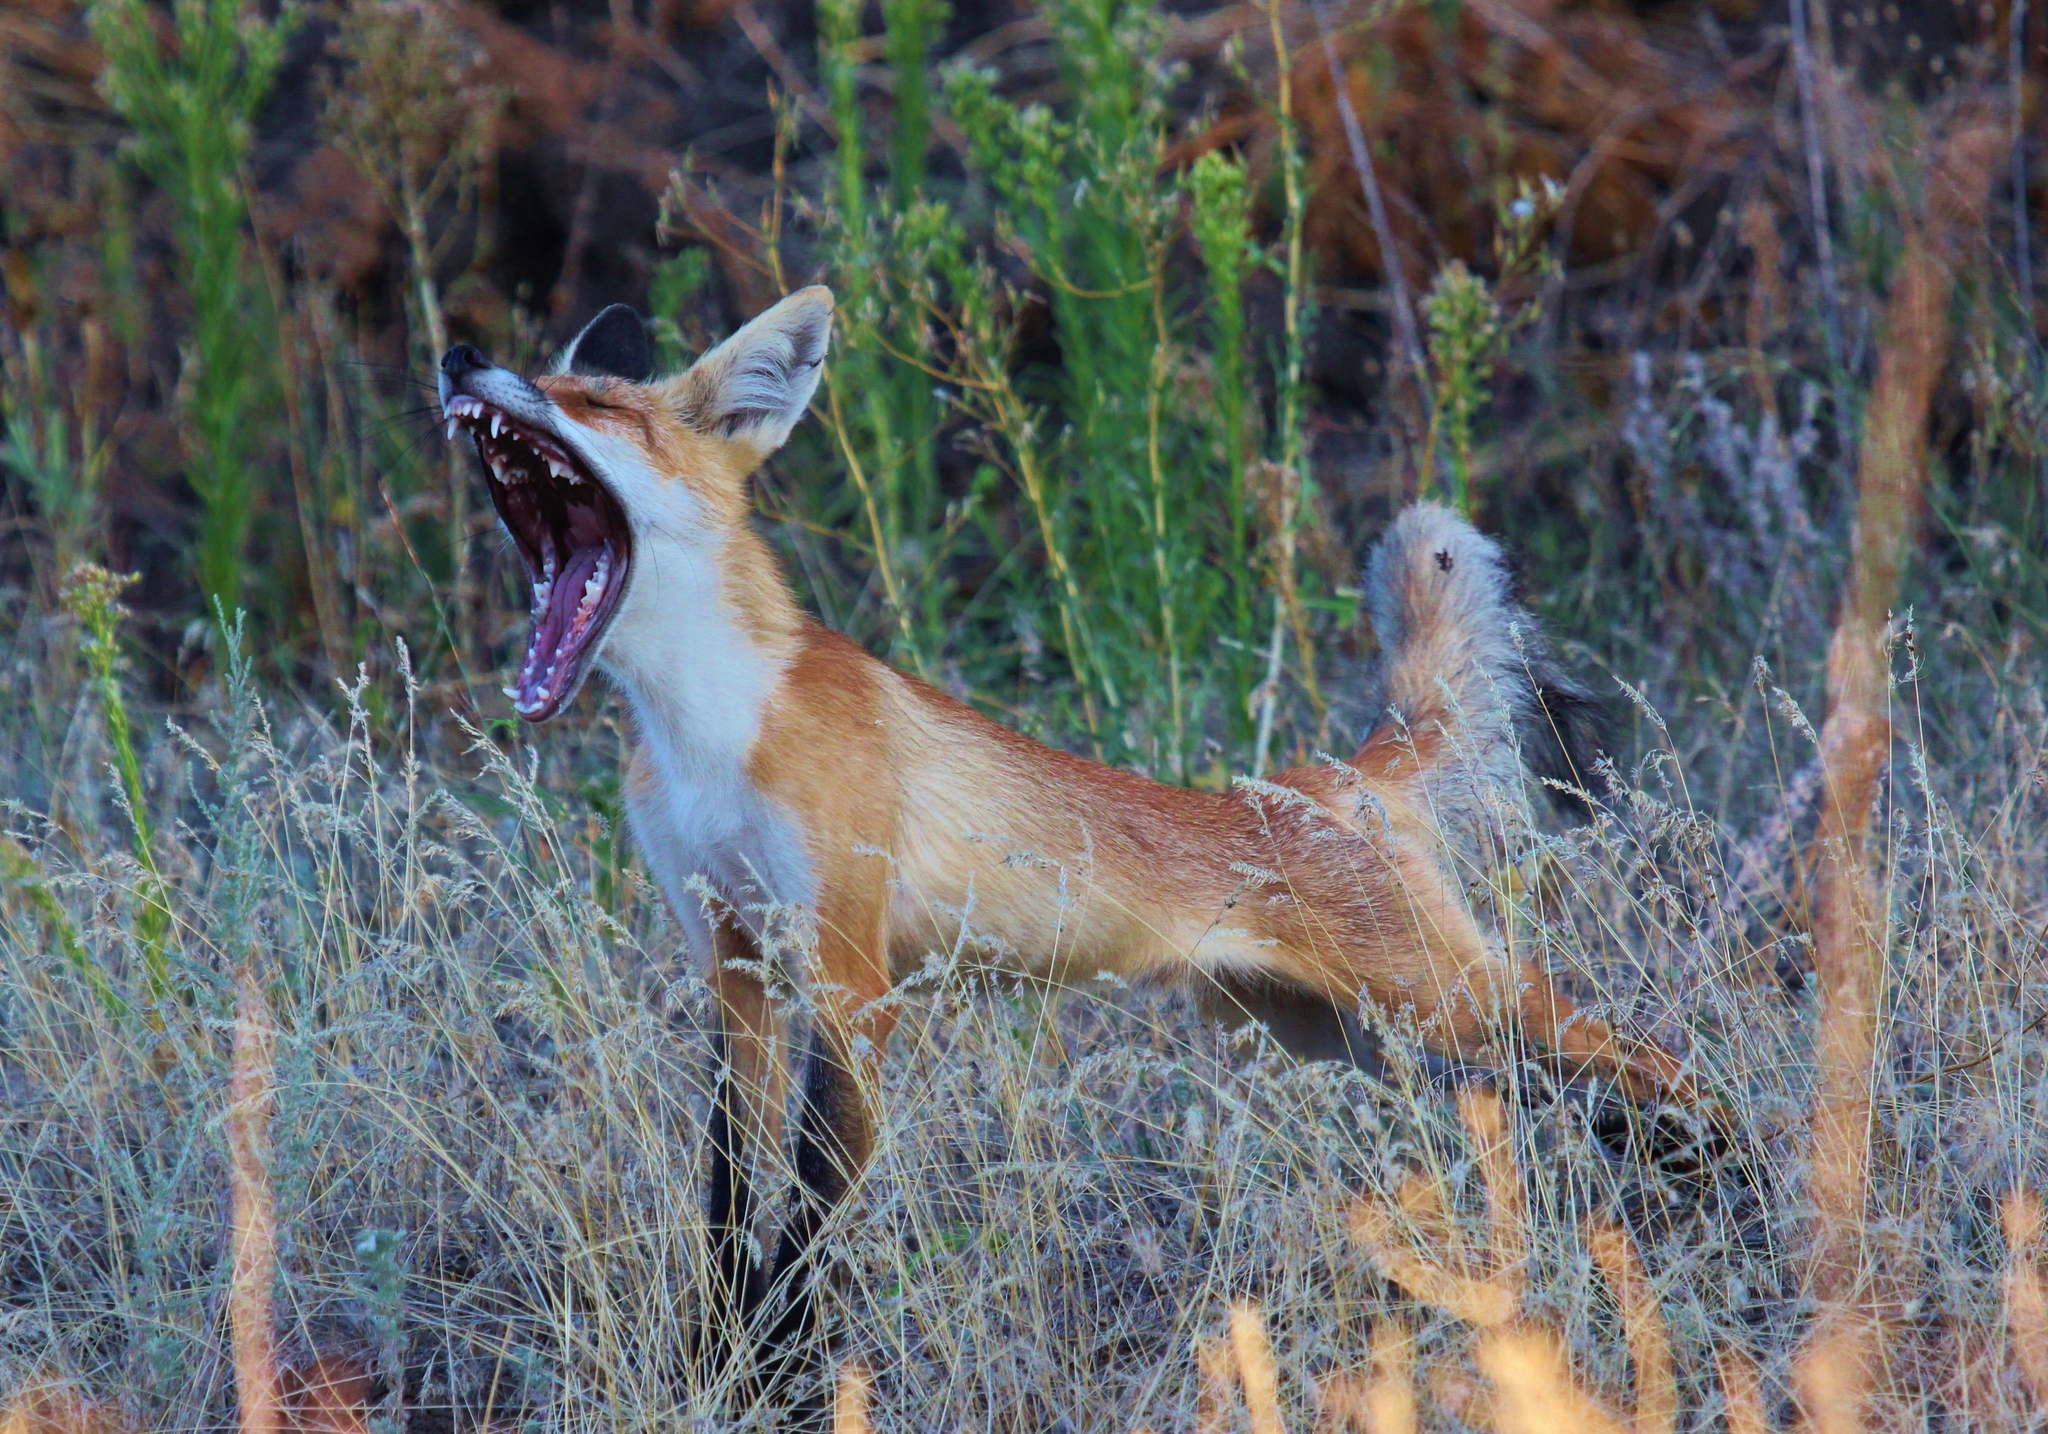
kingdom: Animalia
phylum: Chordata
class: Mammalia
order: Carnivora
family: Canidae
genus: Vulpes
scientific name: Vulpes vulpes
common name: Red fox
